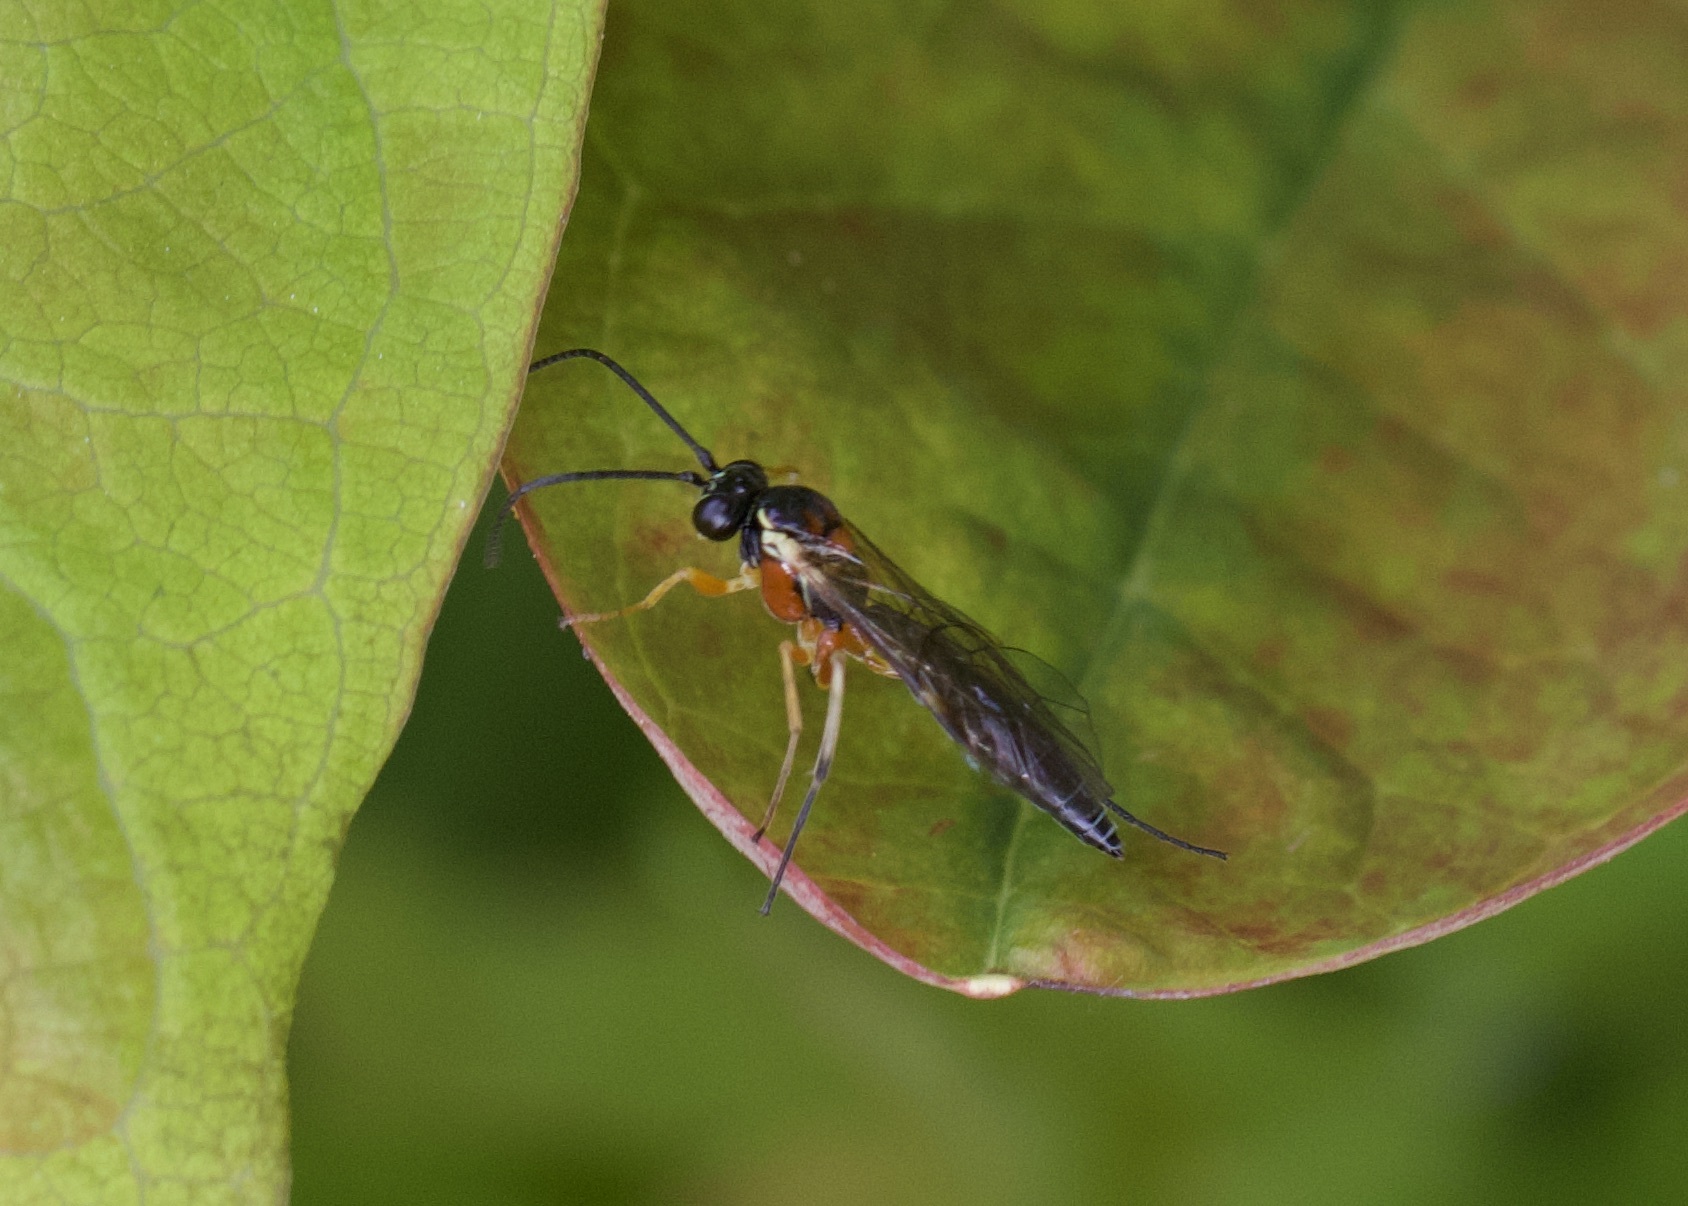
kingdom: Animalia
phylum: Arthropoda
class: Insecta
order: Hymenoptera
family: Ichneumonidae
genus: Diplazon
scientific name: Diplazon pectoratorius
